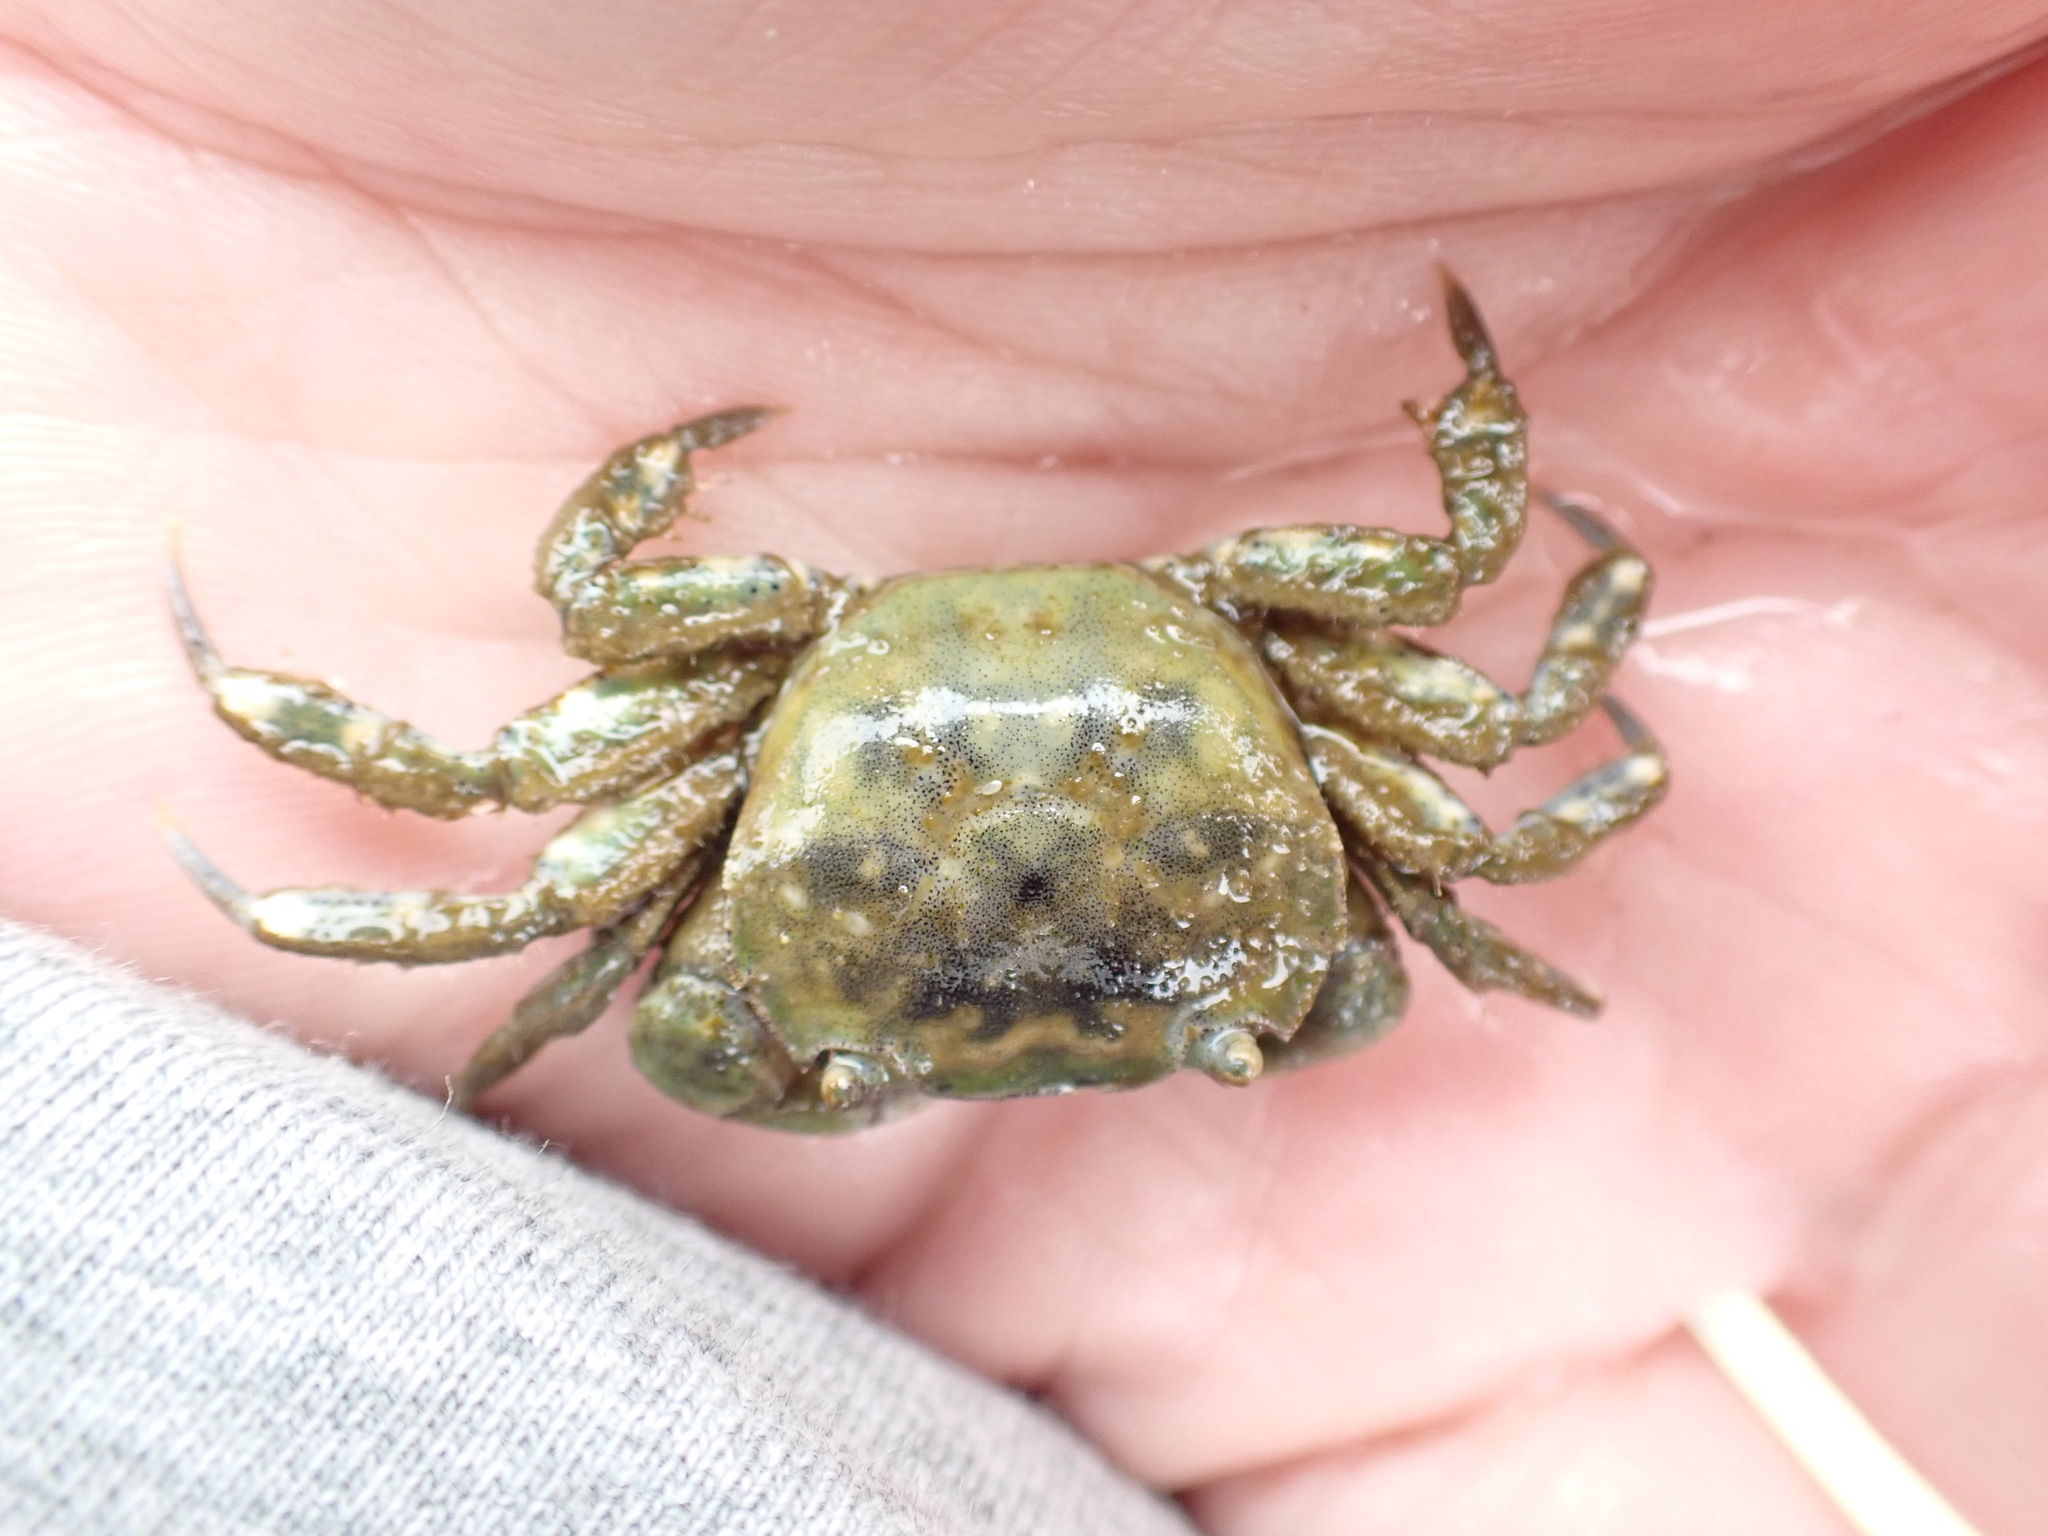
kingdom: Animalia
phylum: Arthropoda
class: Malacostraca
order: Decapoda
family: Varunidae
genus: Hemigrapsus
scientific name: Hemigrapsus crenulatus
